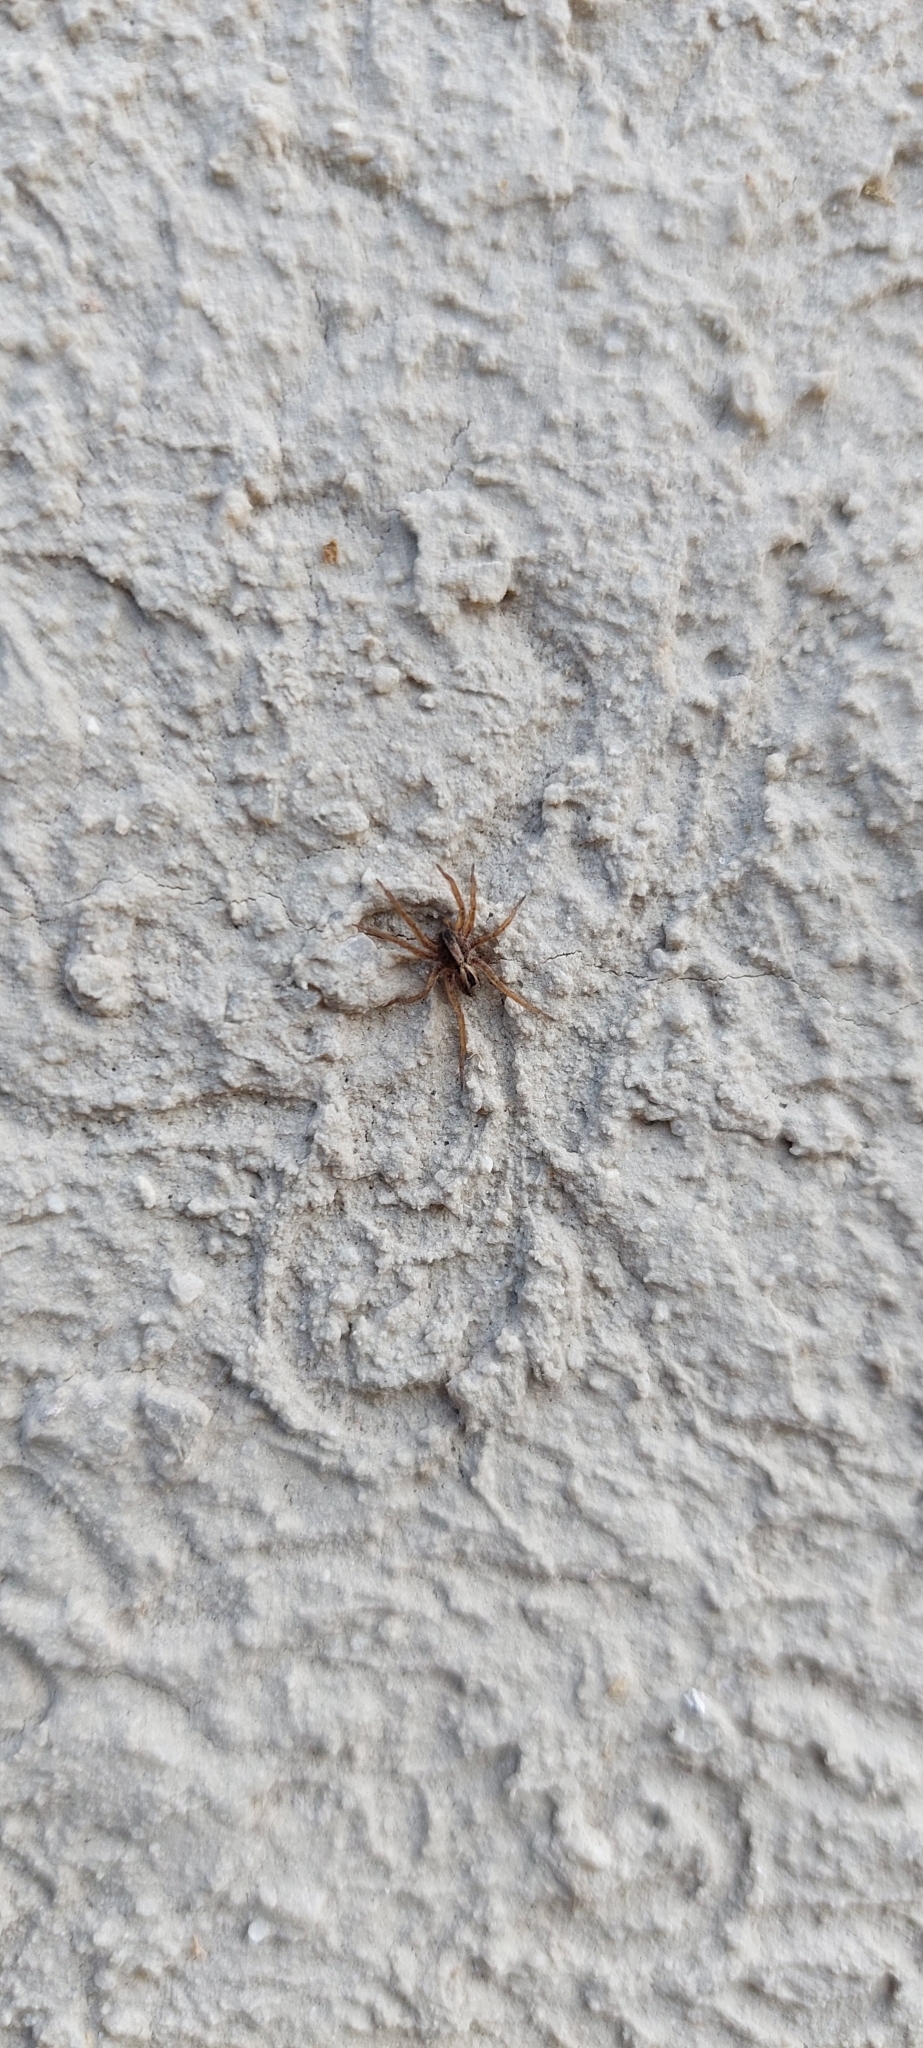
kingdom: Animalia
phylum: Arthropoda
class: Arachnida
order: Araneae
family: Lycosidae
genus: Hogna
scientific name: Hogna birabeni
